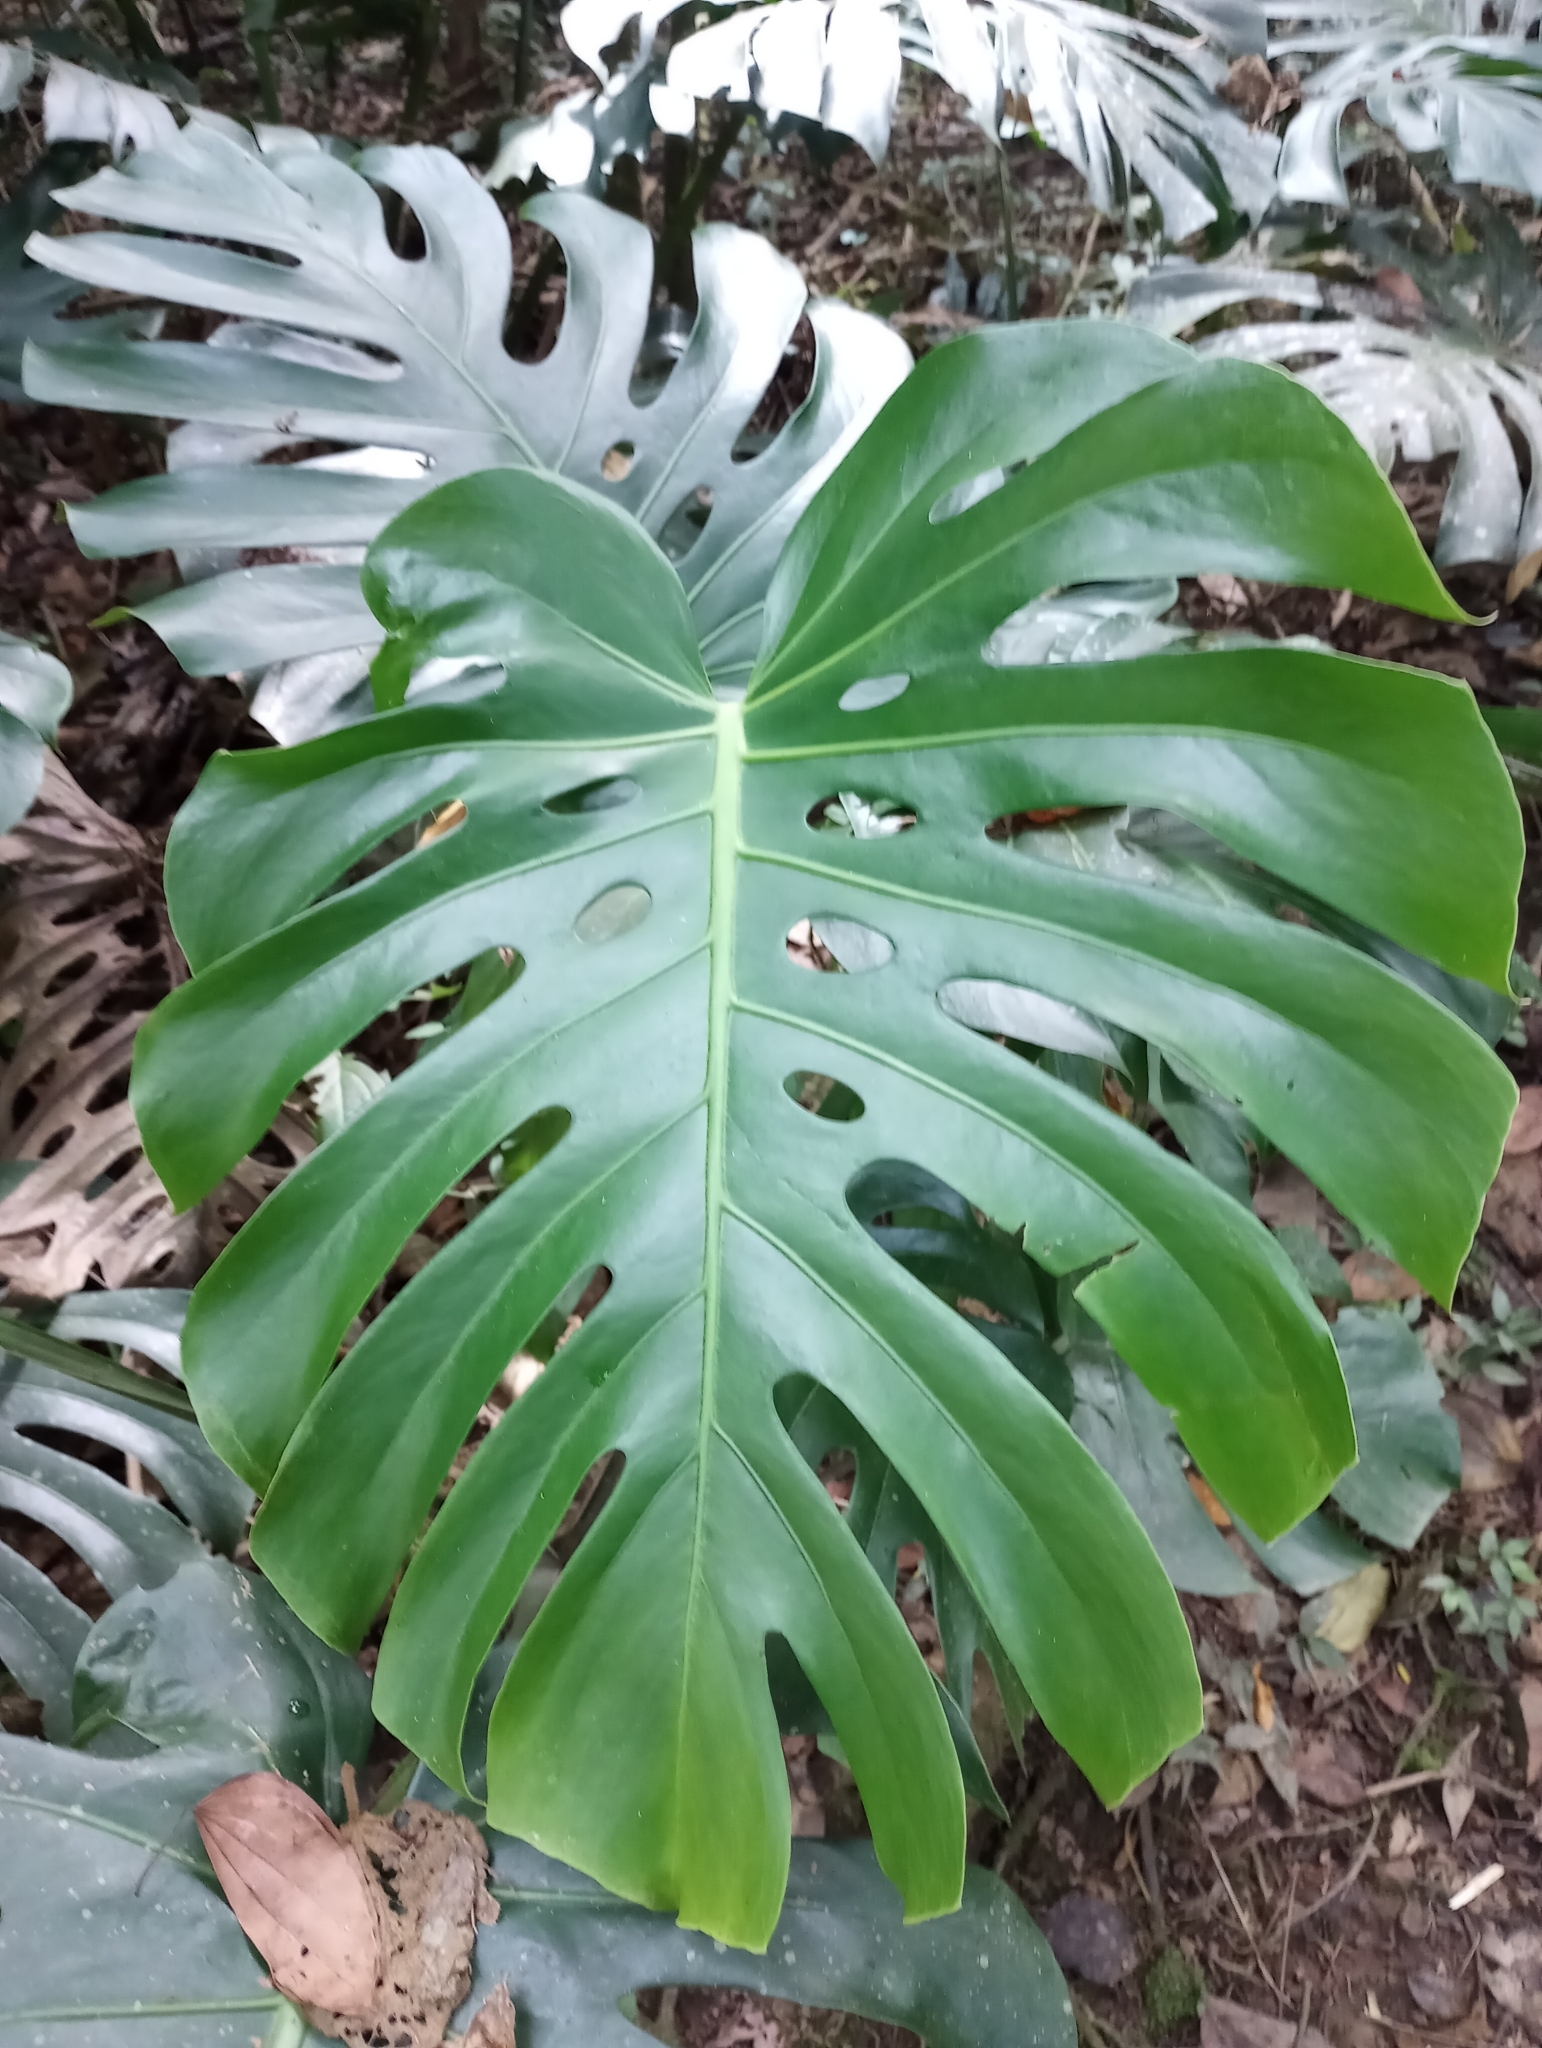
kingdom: Plantae
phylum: Tracheophyta
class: Liliopsida
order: Alismatales
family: Araceae
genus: Monstera
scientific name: Monstera deliciosa
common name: Cut-leaf-philodendron
